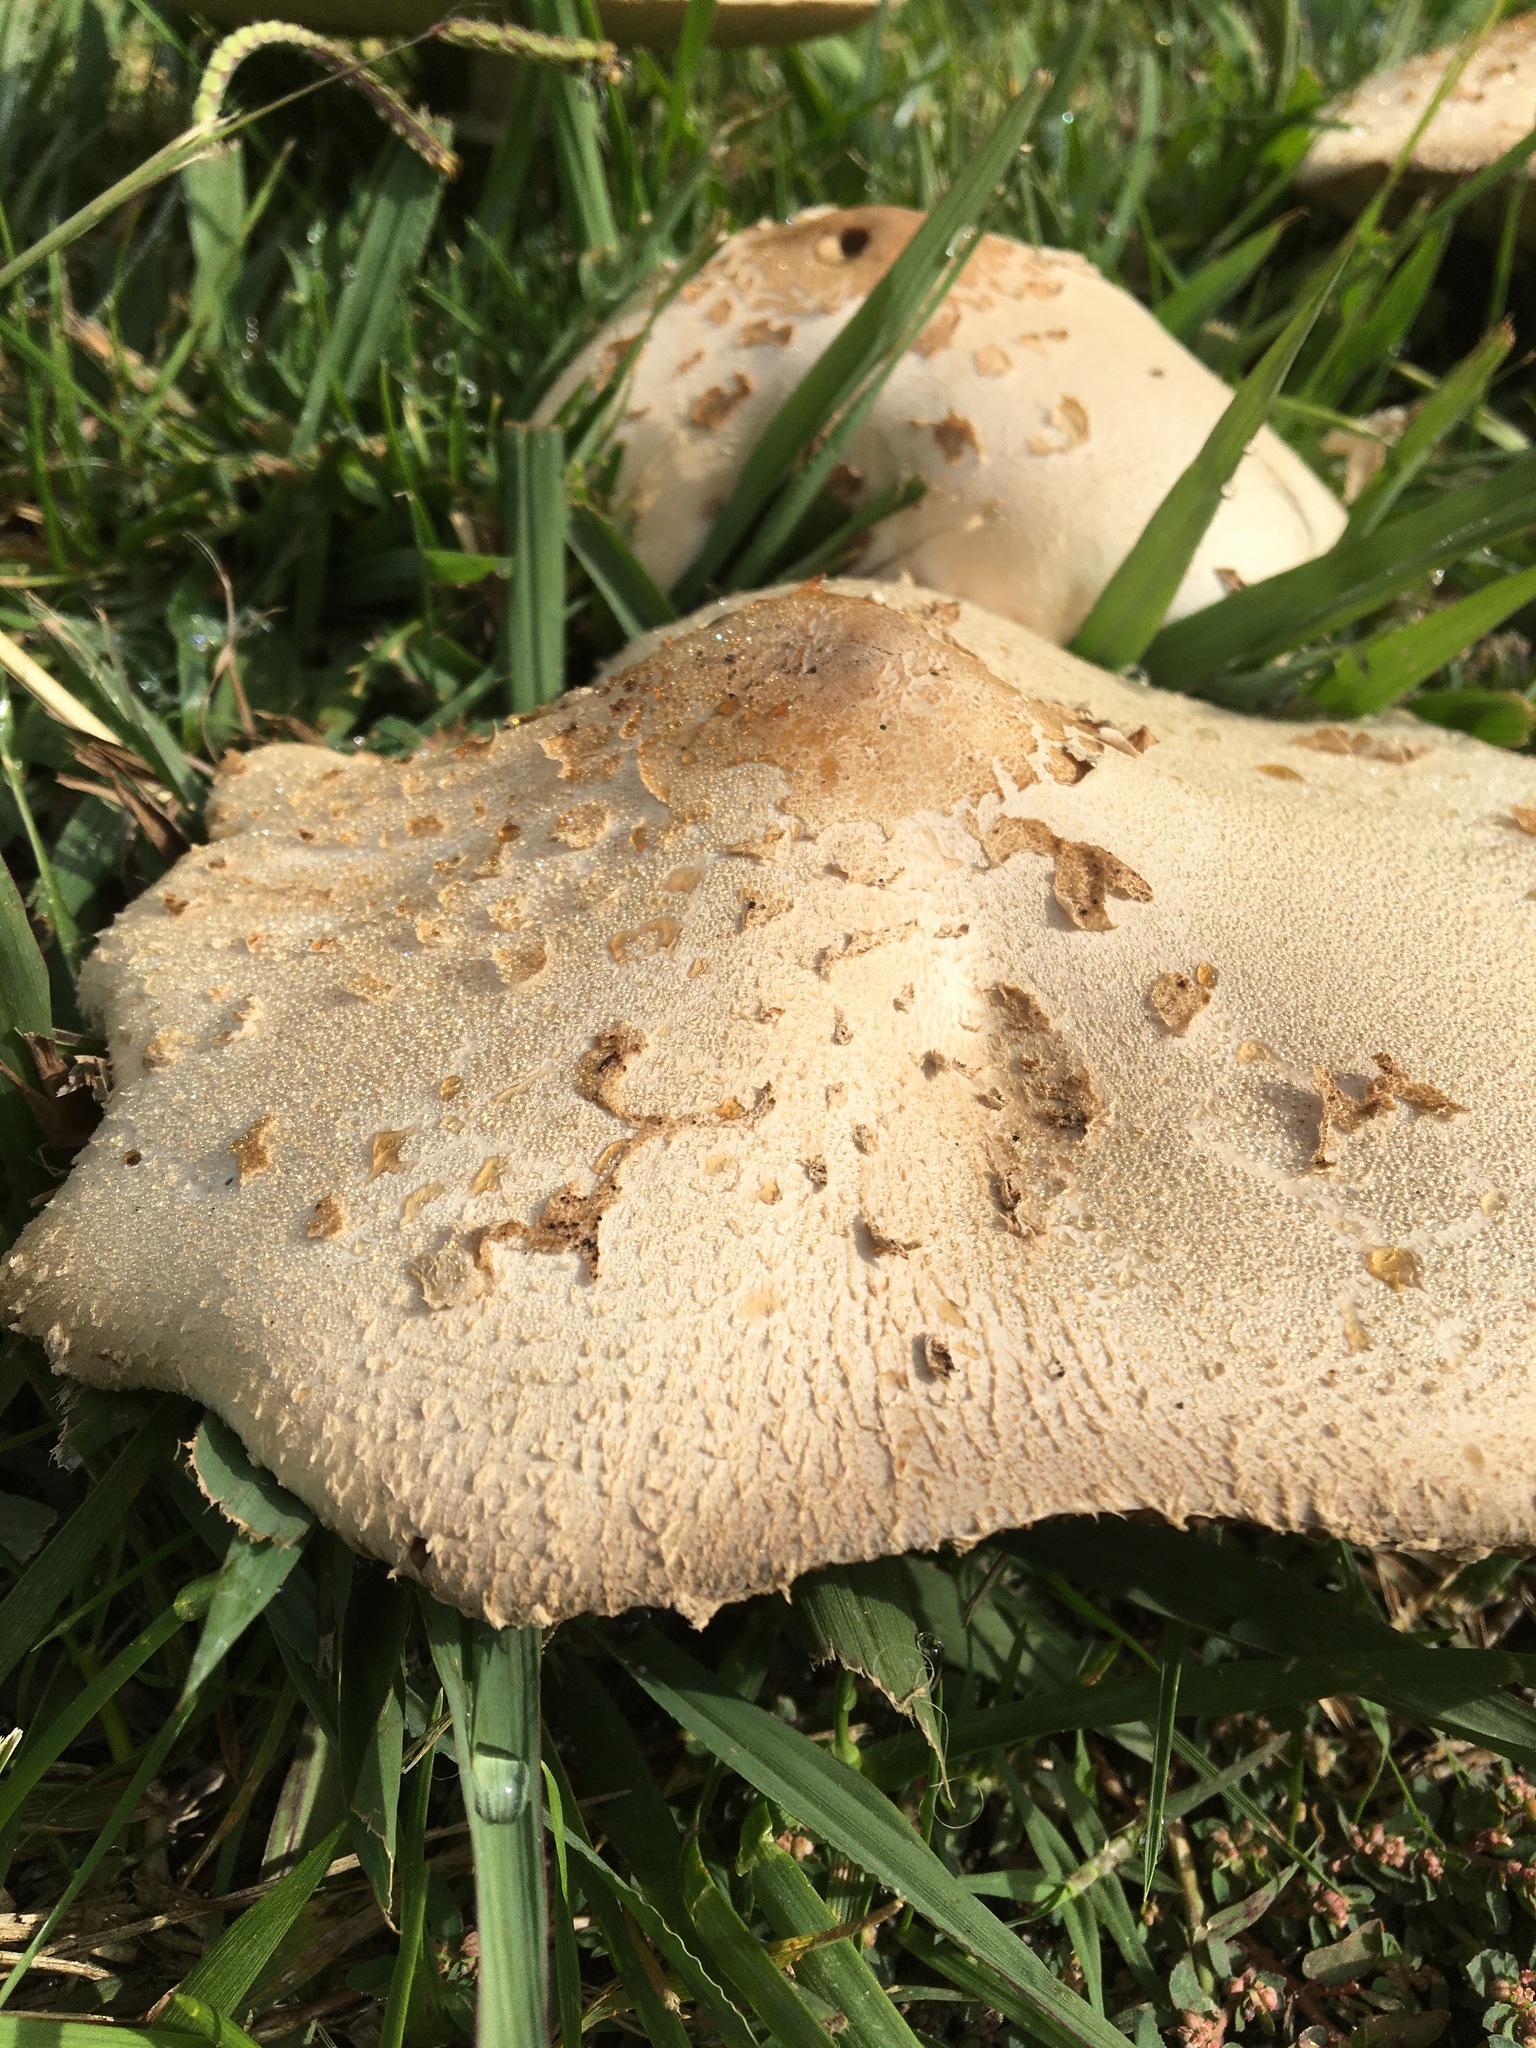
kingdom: Fungi
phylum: Basidiomycota
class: Agaricomycetes
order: Agaricales
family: Agaricaceae
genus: Chlorophyllum
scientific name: Chlorophyllum molybdites
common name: False parasol
